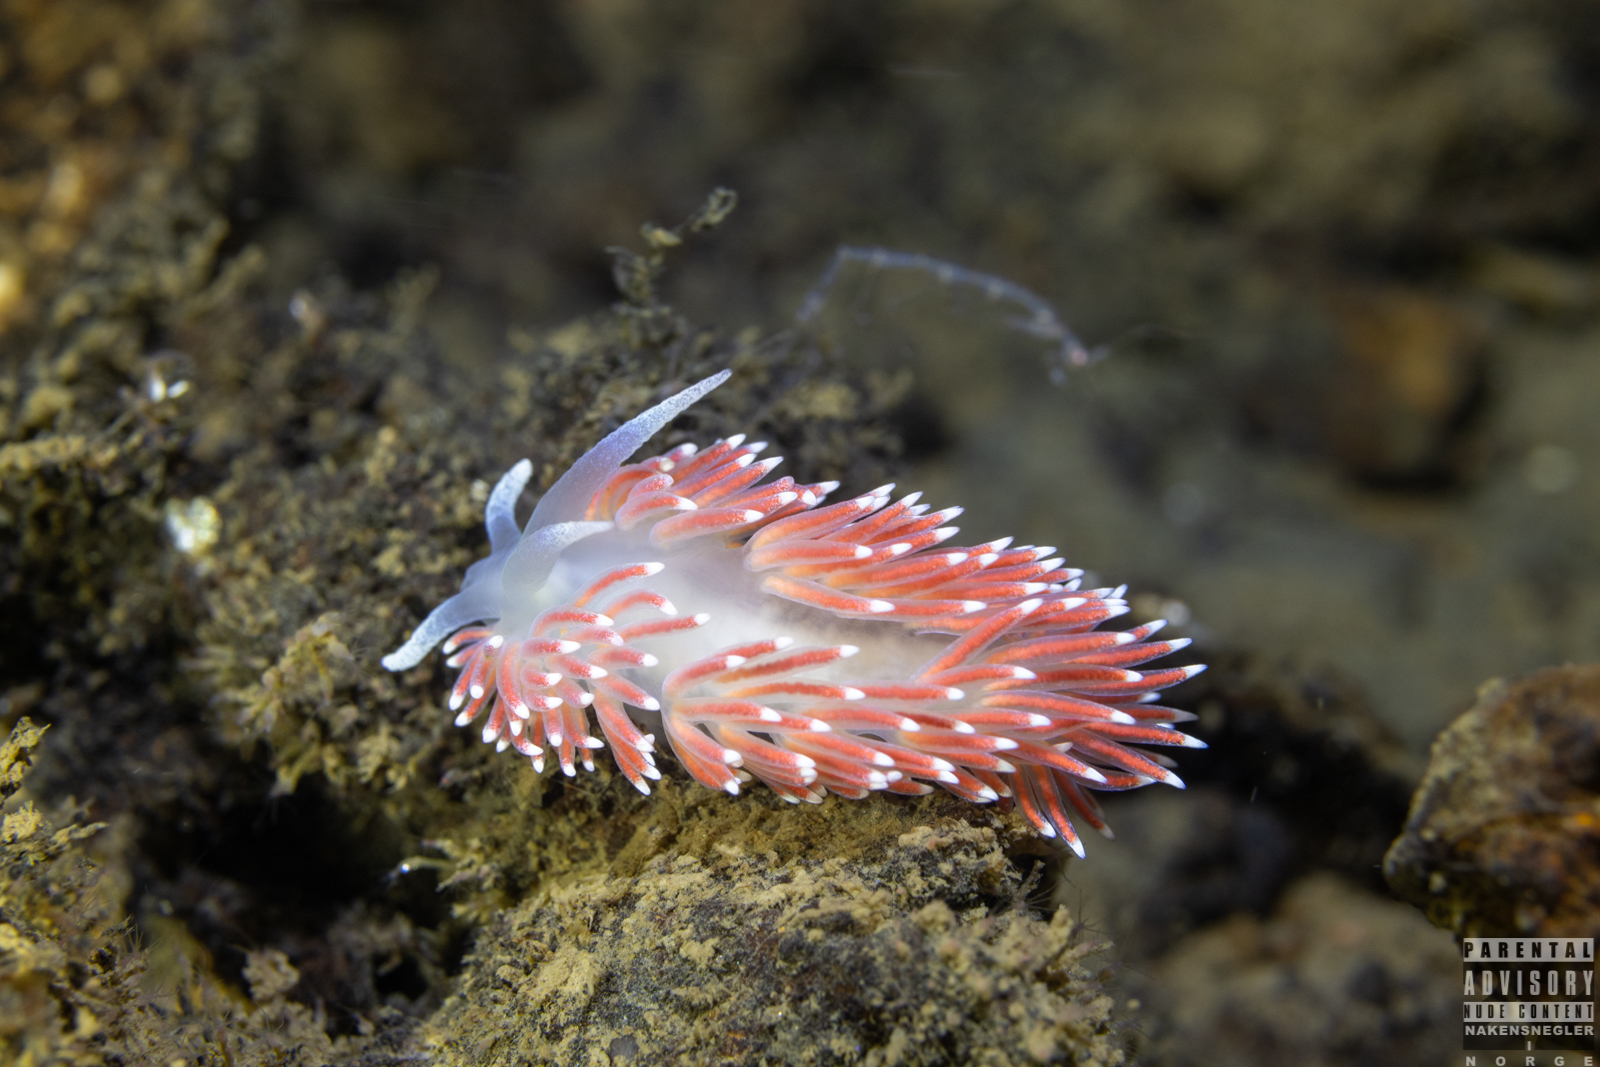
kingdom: Animalia
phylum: Mollusca
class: Gastropoda
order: Nudibranchia
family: Flabellinidae
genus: Carronella
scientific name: Carronella pellucida
